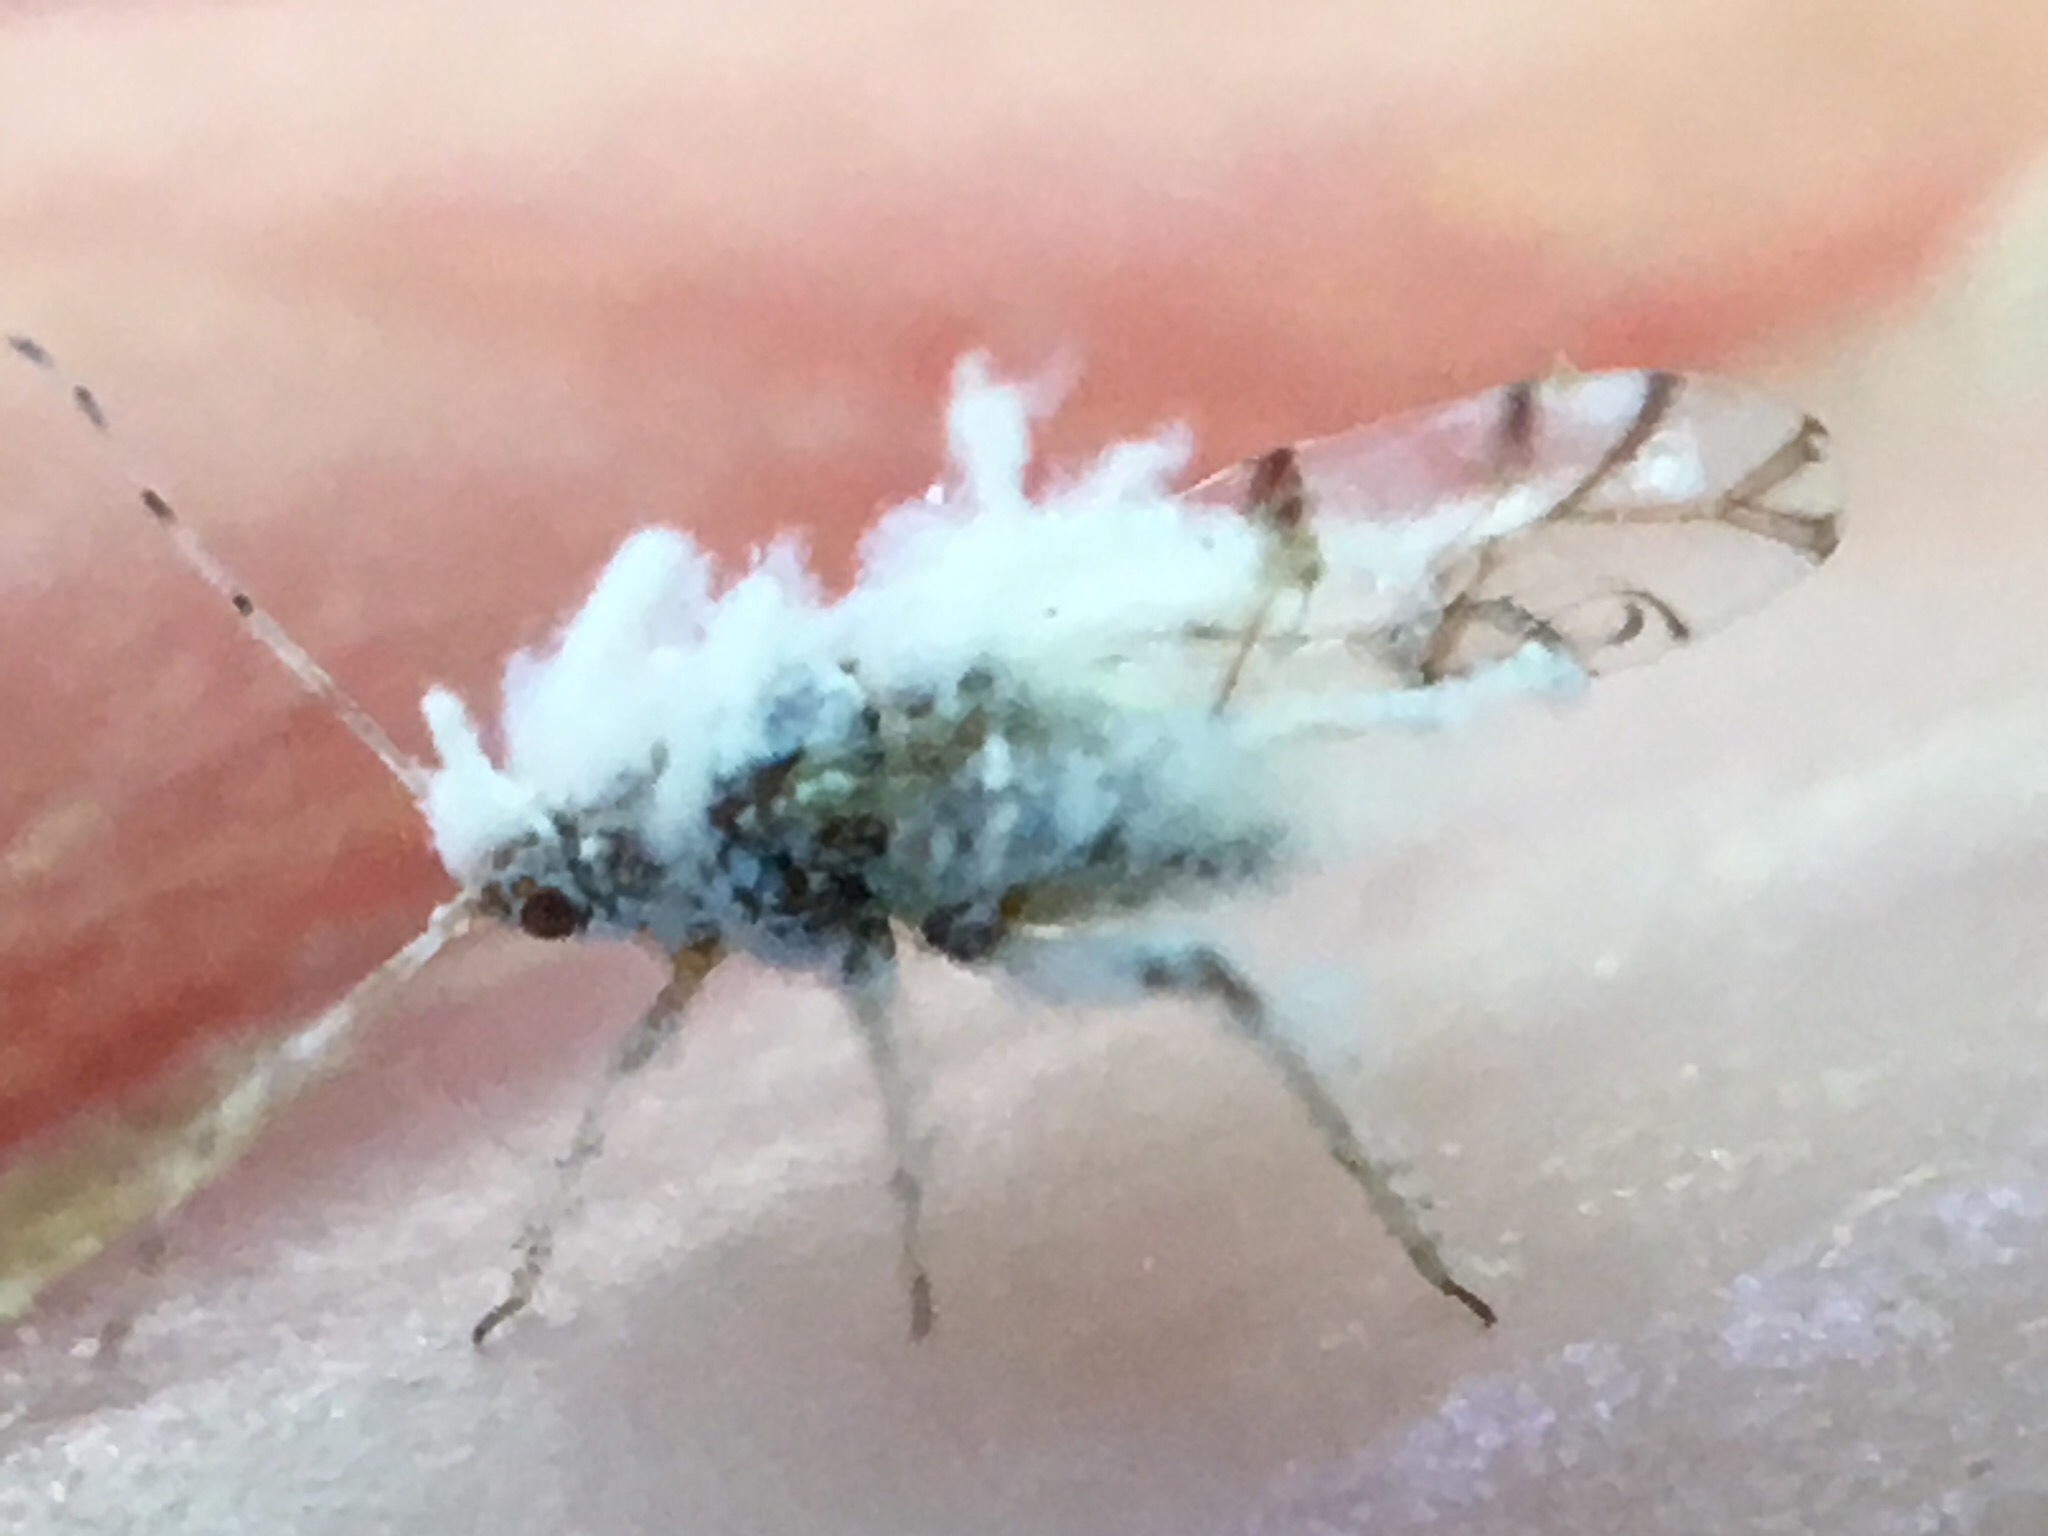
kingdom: Animalia
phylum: Arthropoda
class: Insecta
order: Hemiptera
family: Aphididae
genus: Shivaphis
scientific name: Shivaphis celti
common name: Asian wooly hackberry aphid
